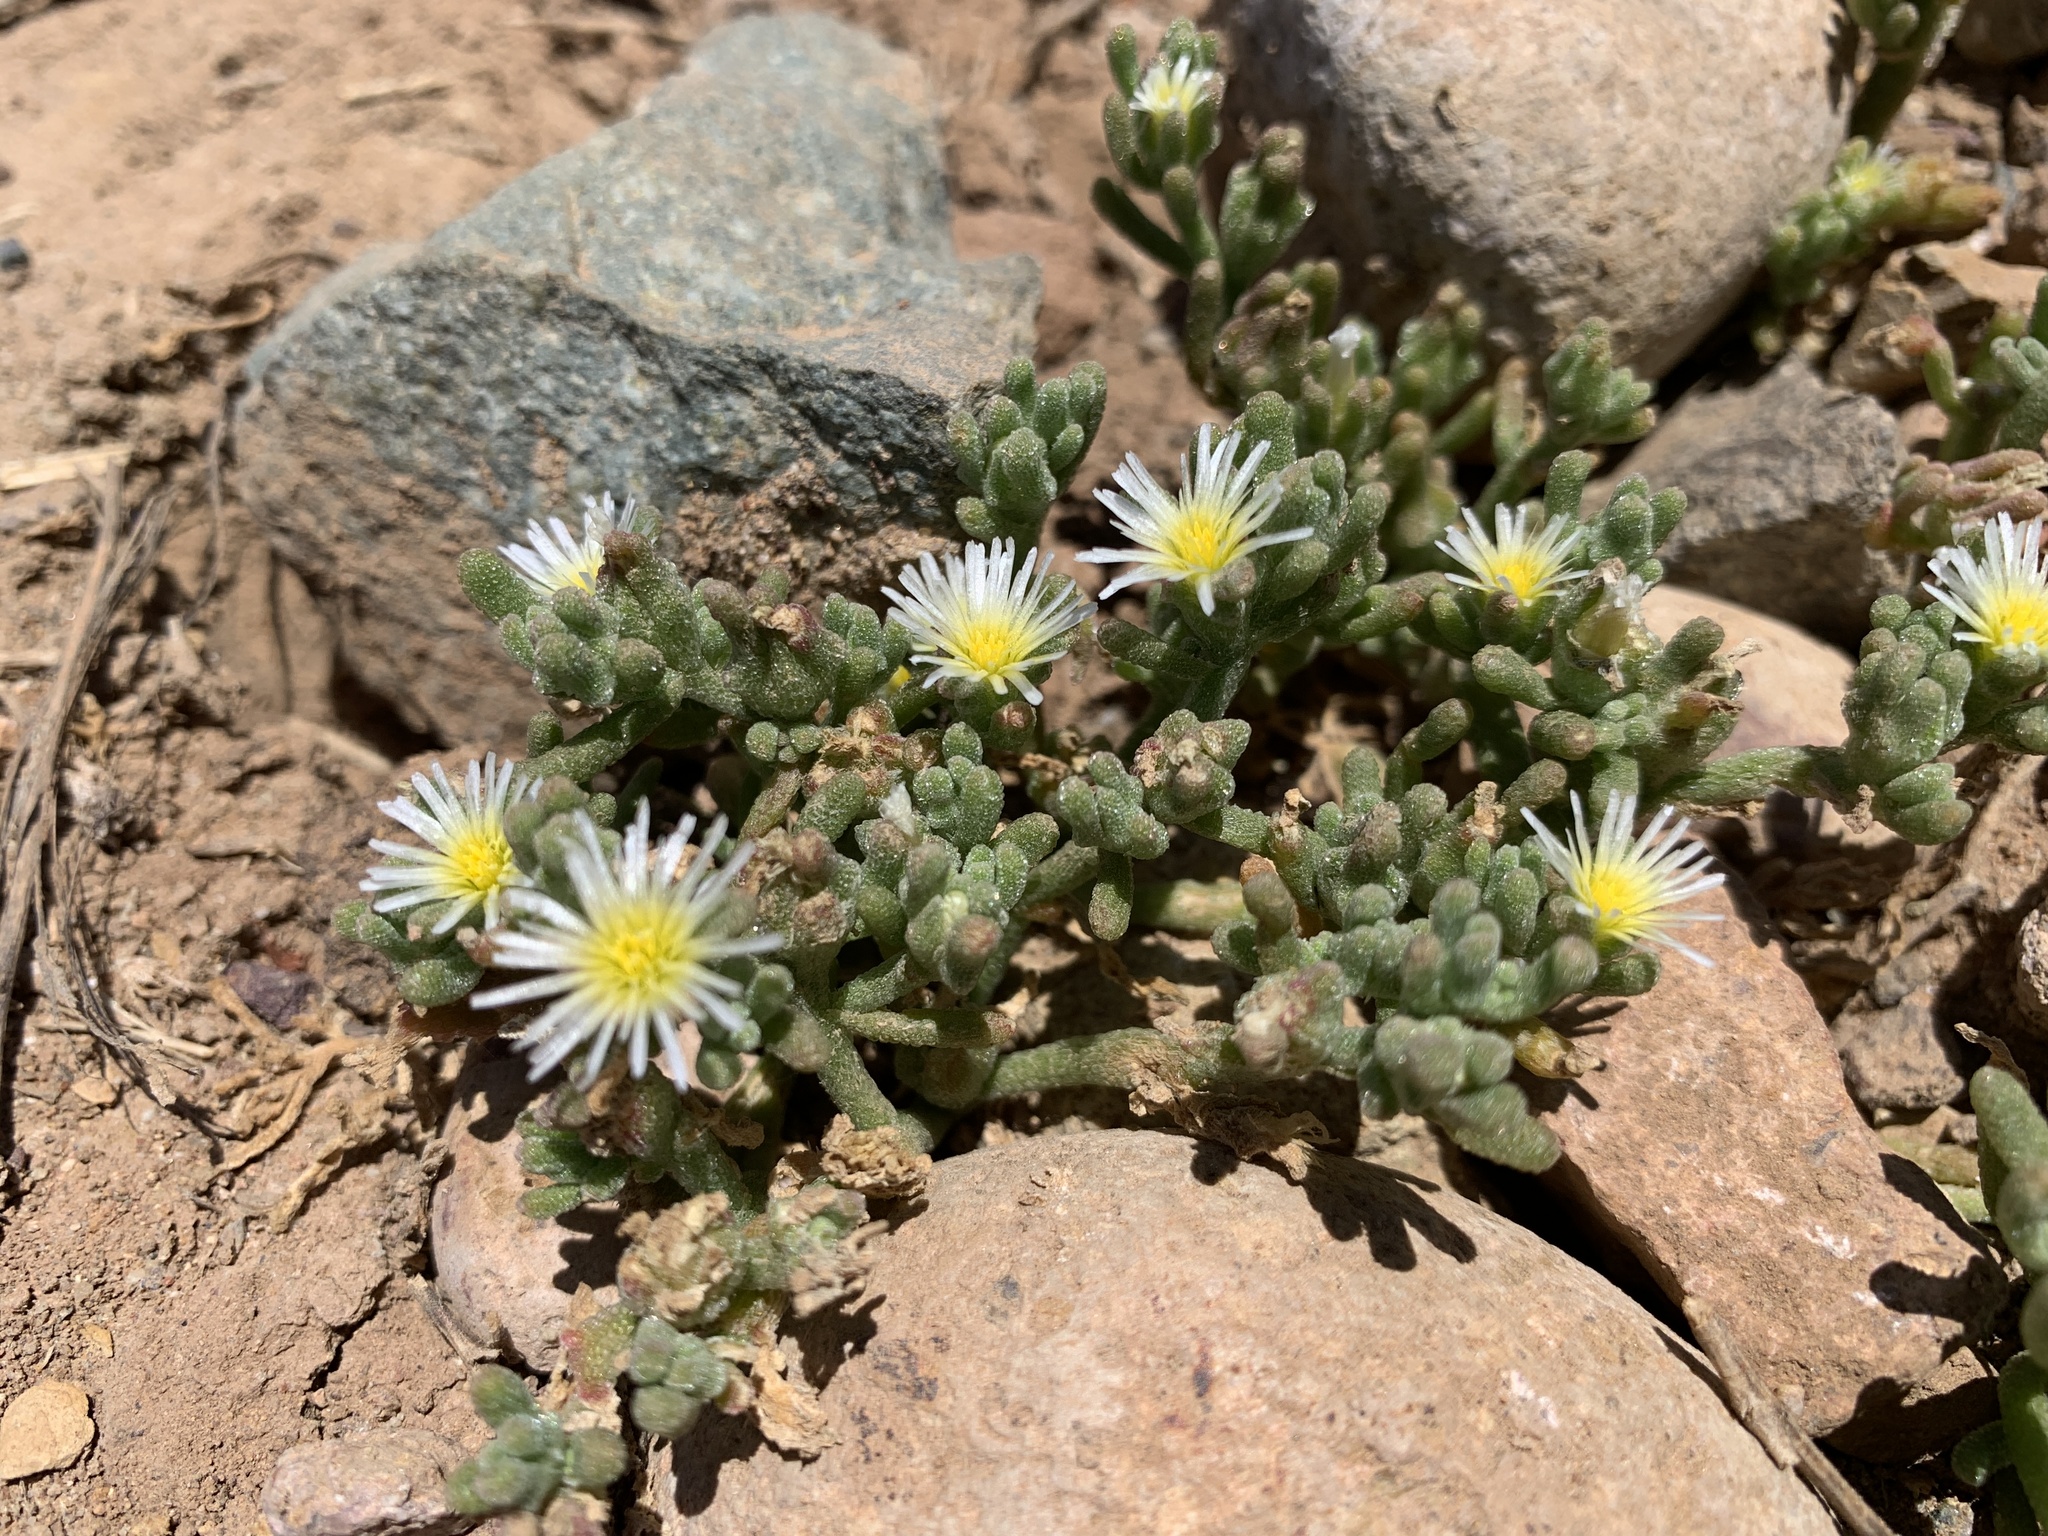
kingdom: Plantae
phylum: Tracheophyta
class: Magnoliopsida
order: Caryophyllales
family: Aizoaceae
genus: Mesembryanthemum
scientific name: Mesembryanthemum nodiflorum
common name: Slenderleaf iceplant
